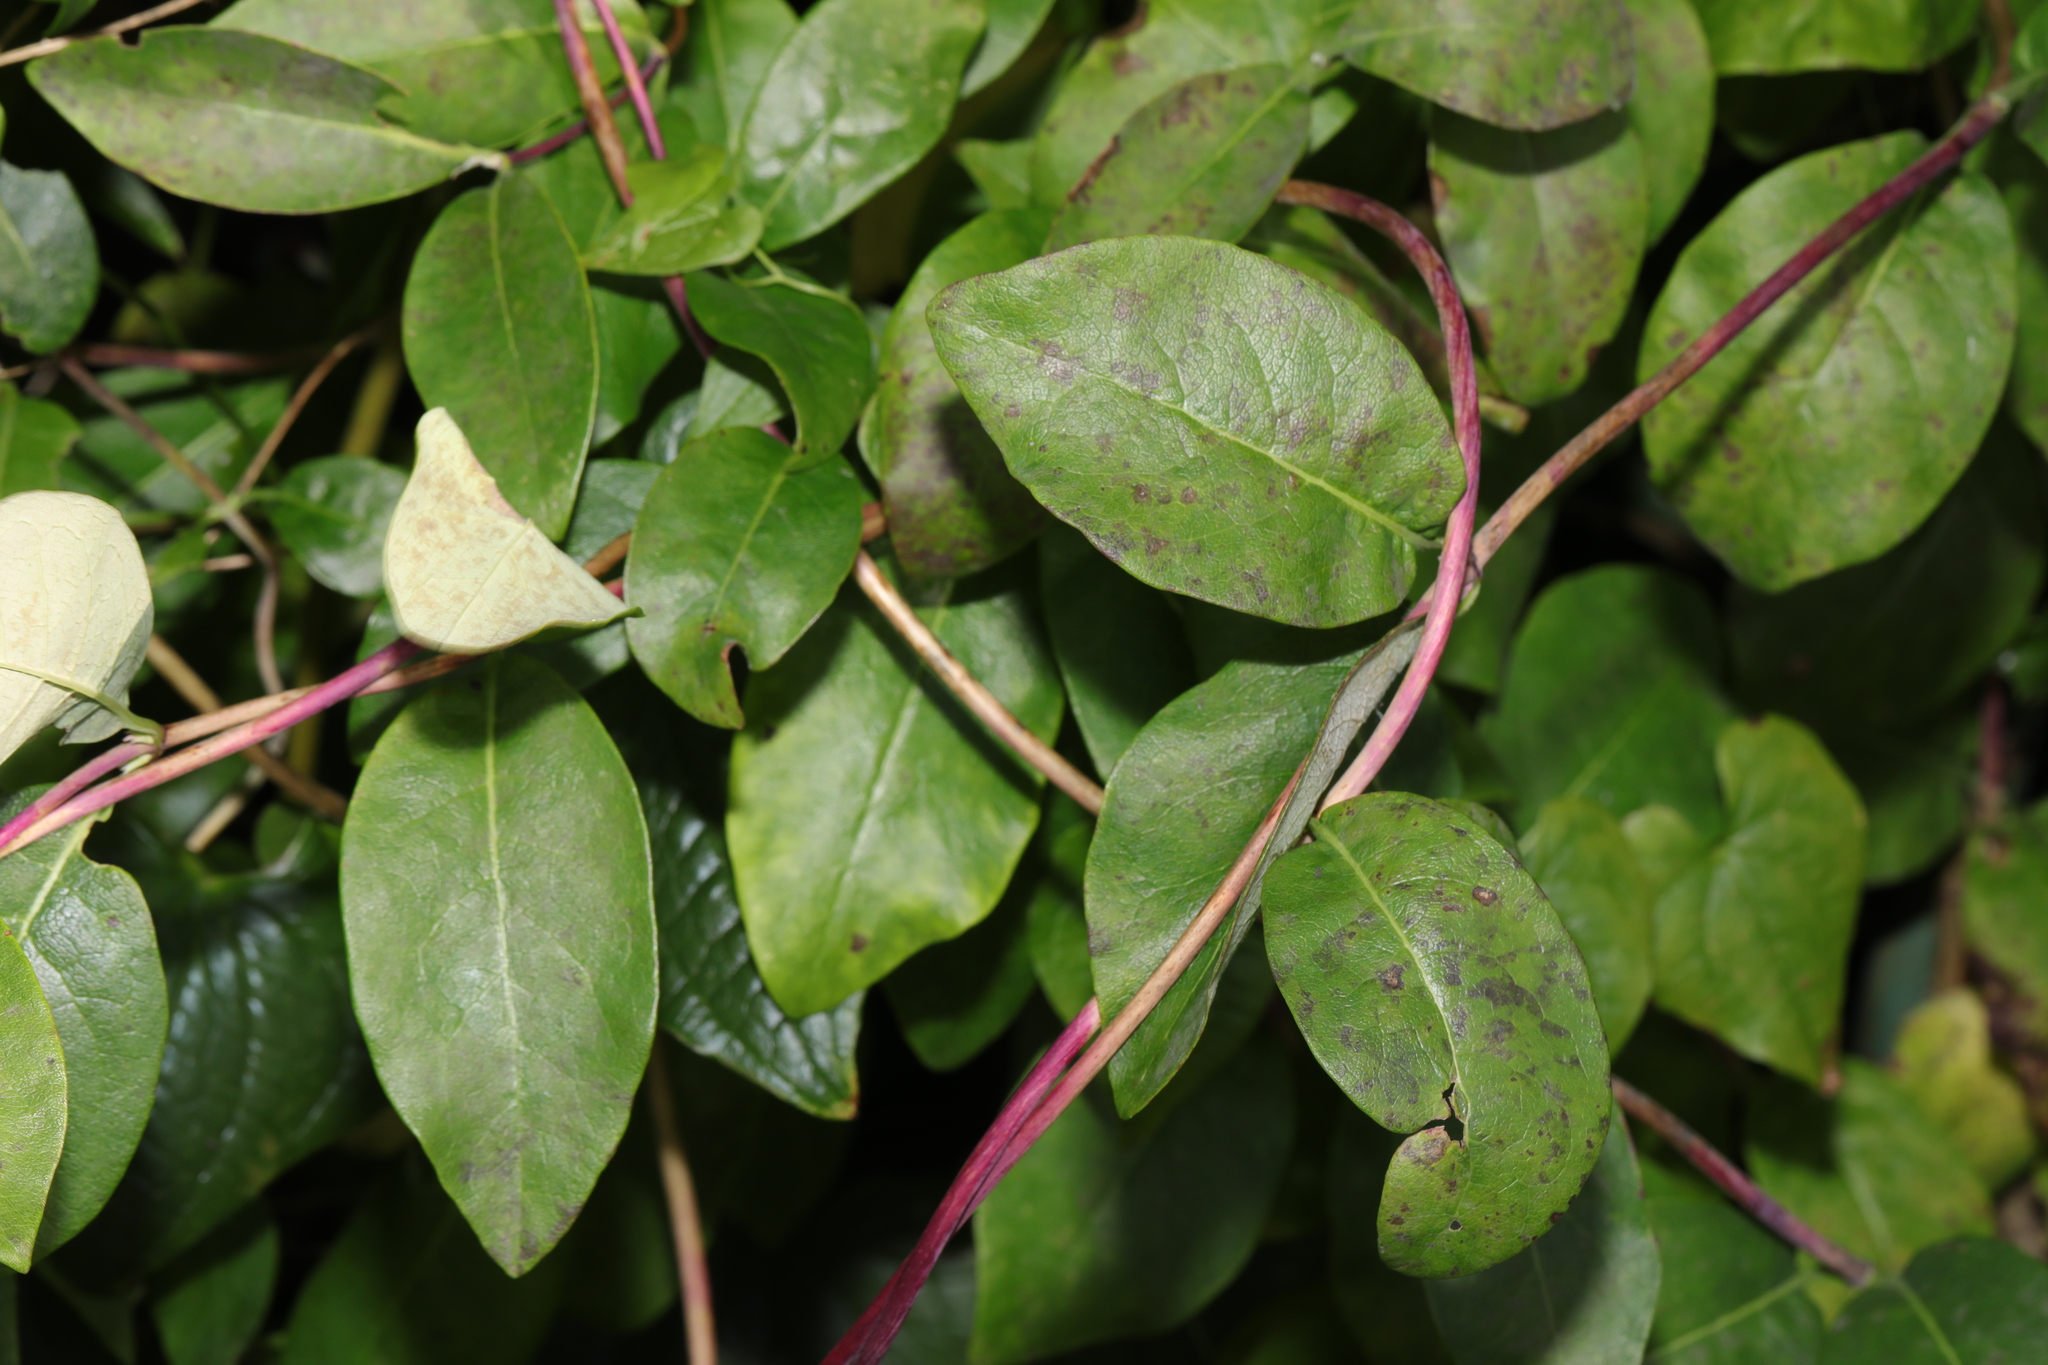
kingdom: Plantae
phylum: Tracheophyta
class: Magnoliopsida
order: Dipsacales
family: Caprifoliaceae
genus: Lonicera
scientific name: Lonicera periclymenum
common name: European honeysuckle
